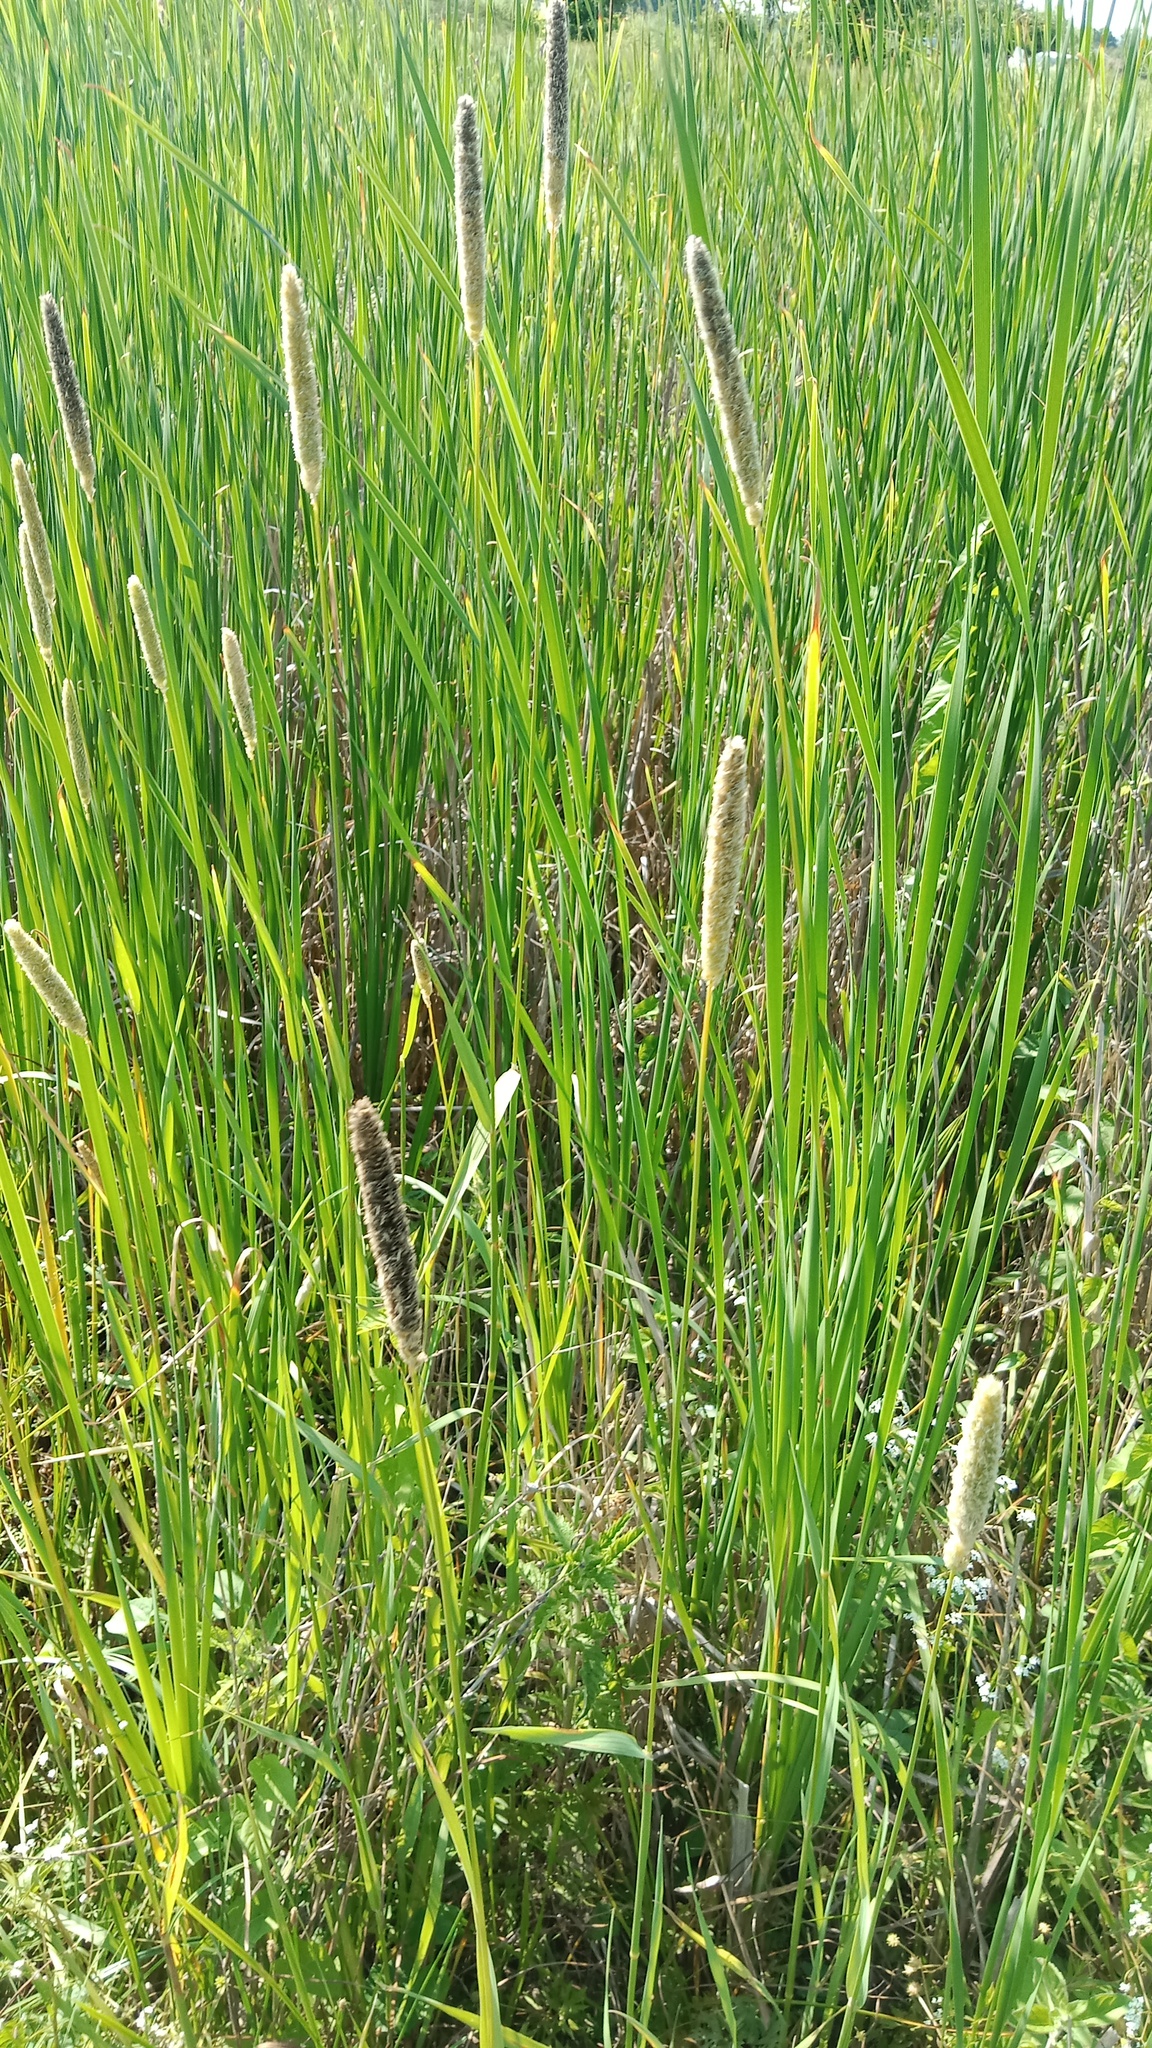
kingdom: Plantae
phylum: Tracheophyta
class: Liliopsida
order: Poales
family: Poaceae
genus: Alopecurus
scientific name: Alopecurus arundinaceus
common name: Creeping meadow foxtail
